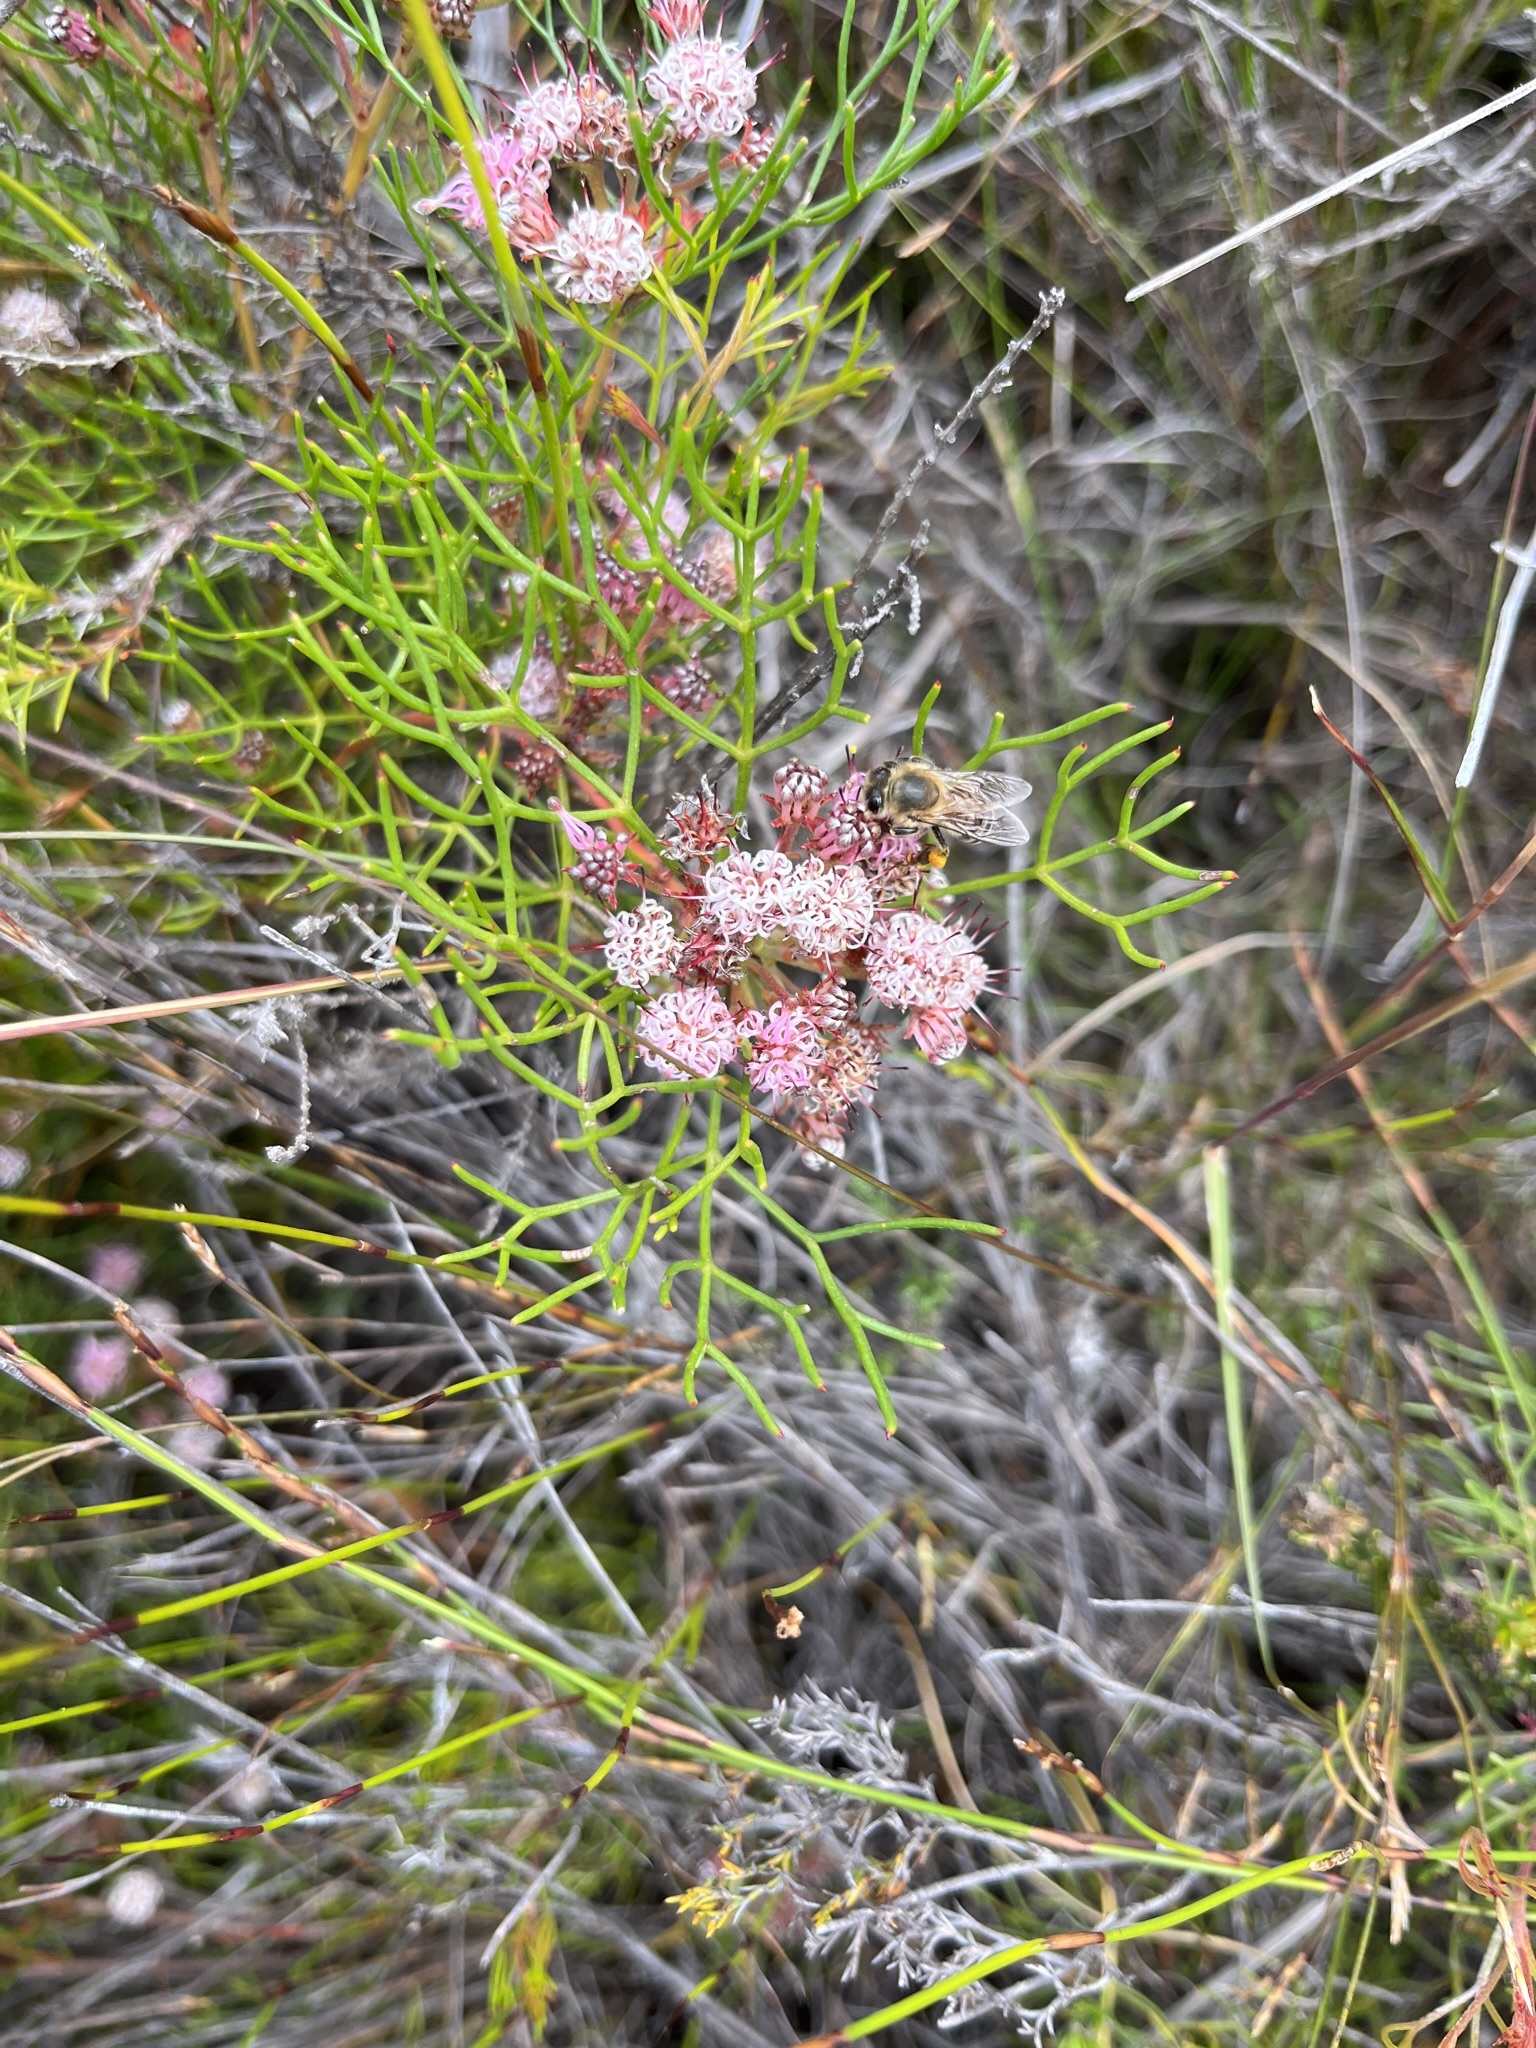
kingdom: Plantae
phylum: Tracheophyta
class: Magnoliopsida
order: Proteales
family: Proteaceae
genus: Serruria
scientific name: Serruria fasciflora
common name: Common pin spiderhead
